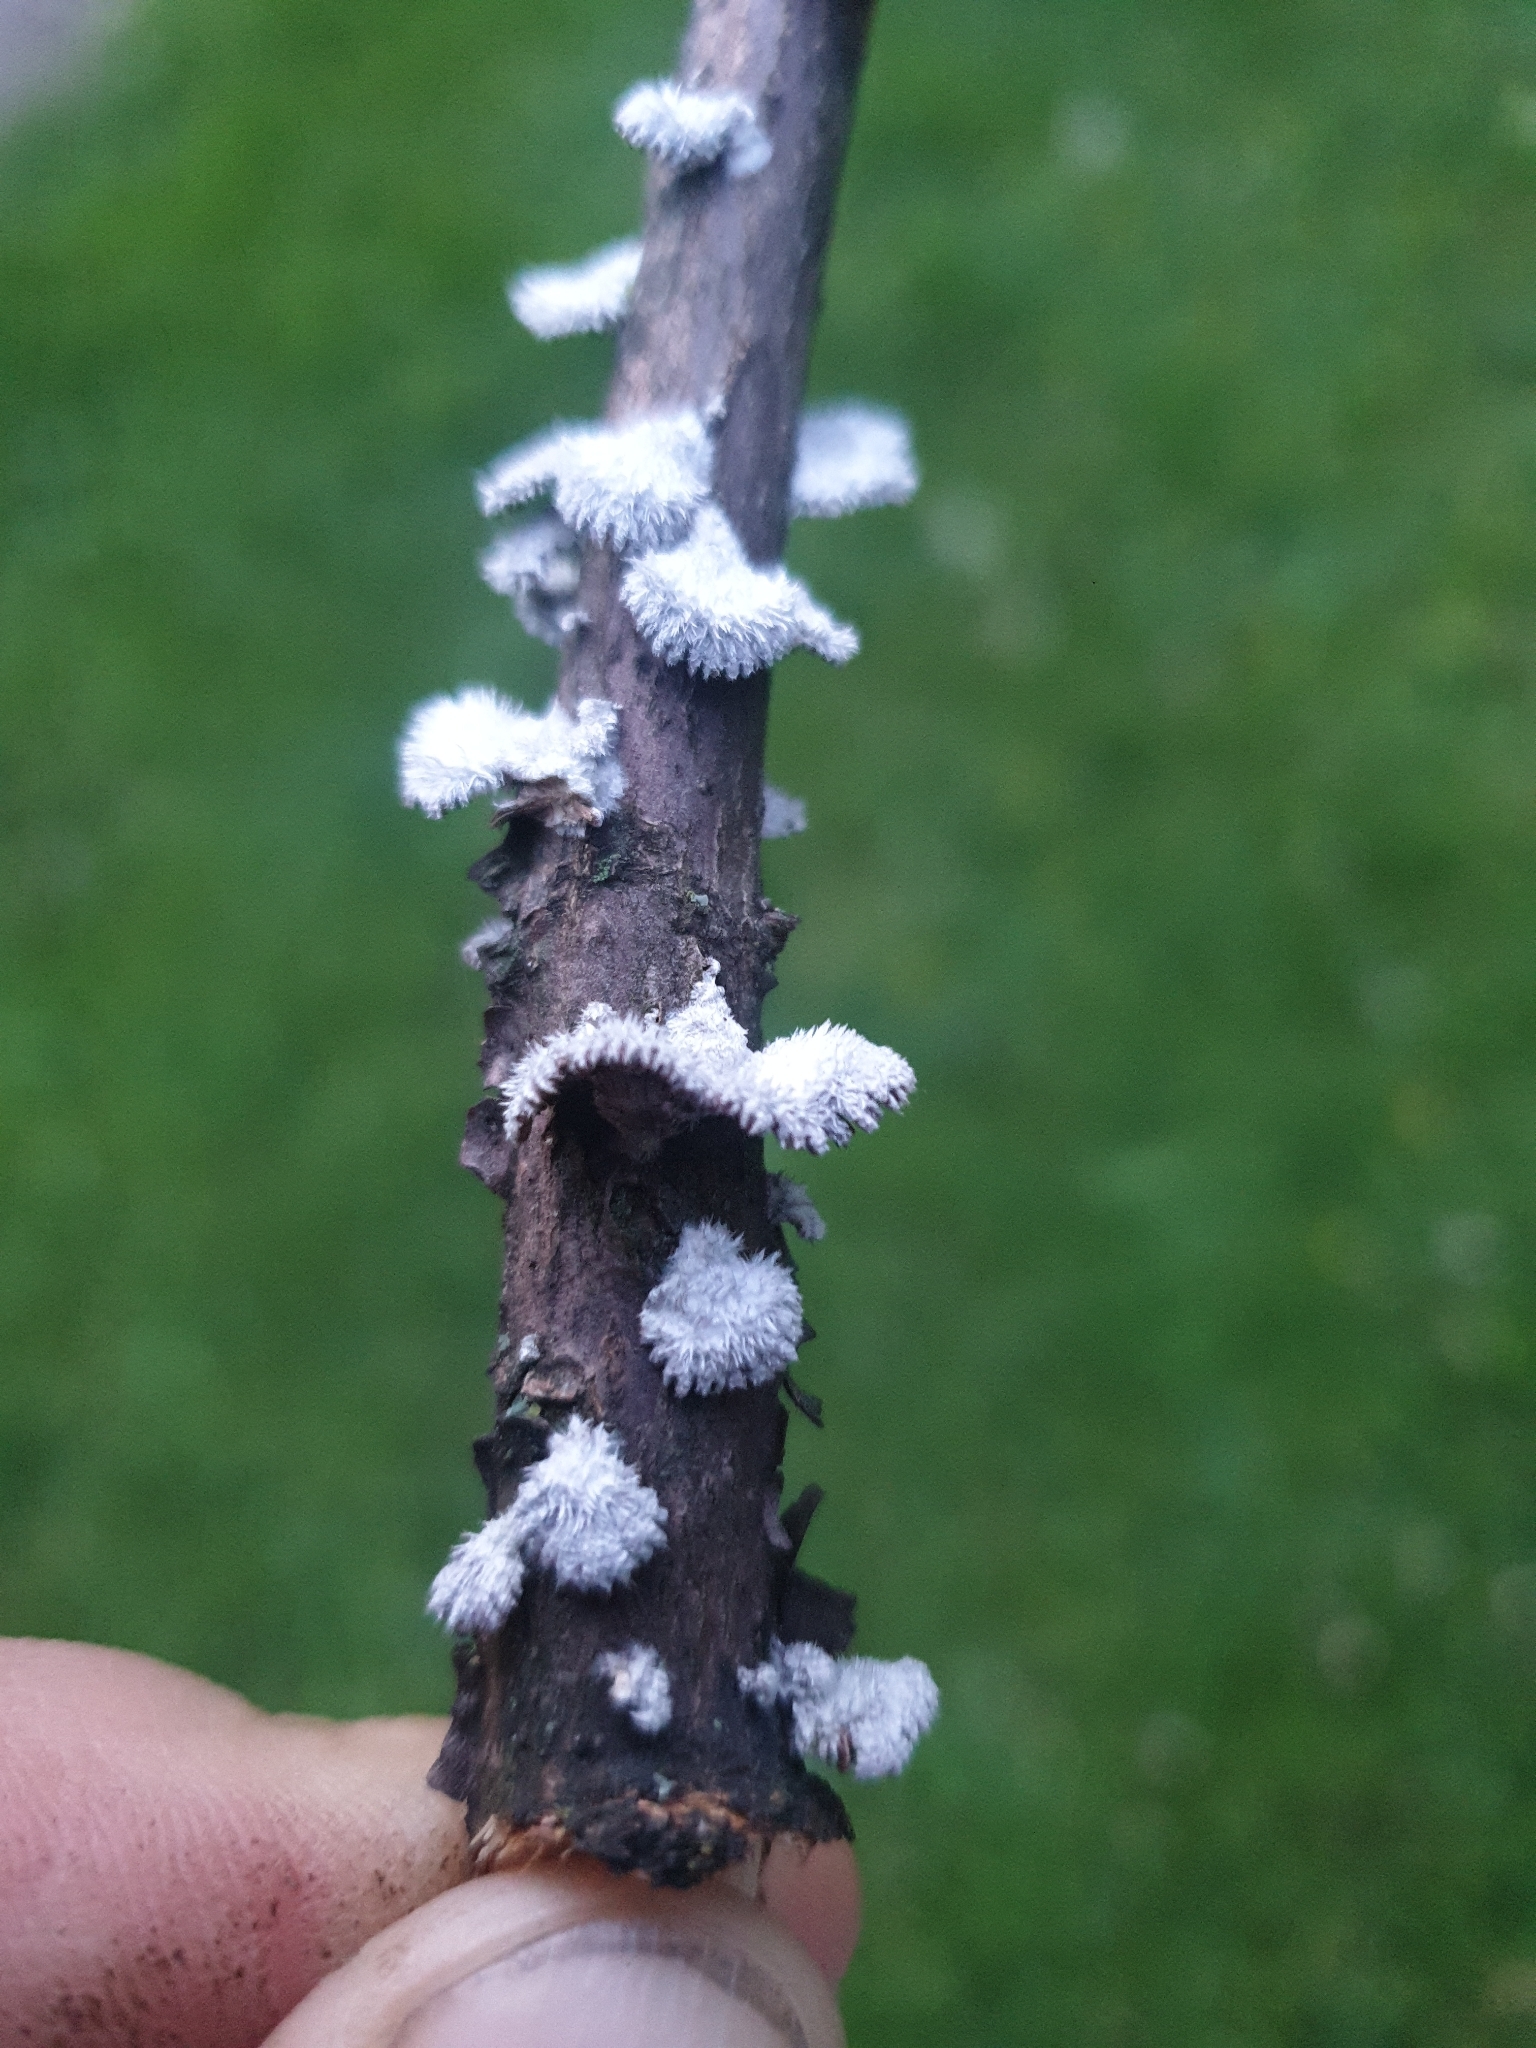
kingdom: Fungi
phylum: Basidiomycota
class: Agaricomycetes
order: Agaricales
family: Schizophyllaceae
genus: Schizophyllum
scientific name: Schizophyllum commune
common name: Common porecrust
